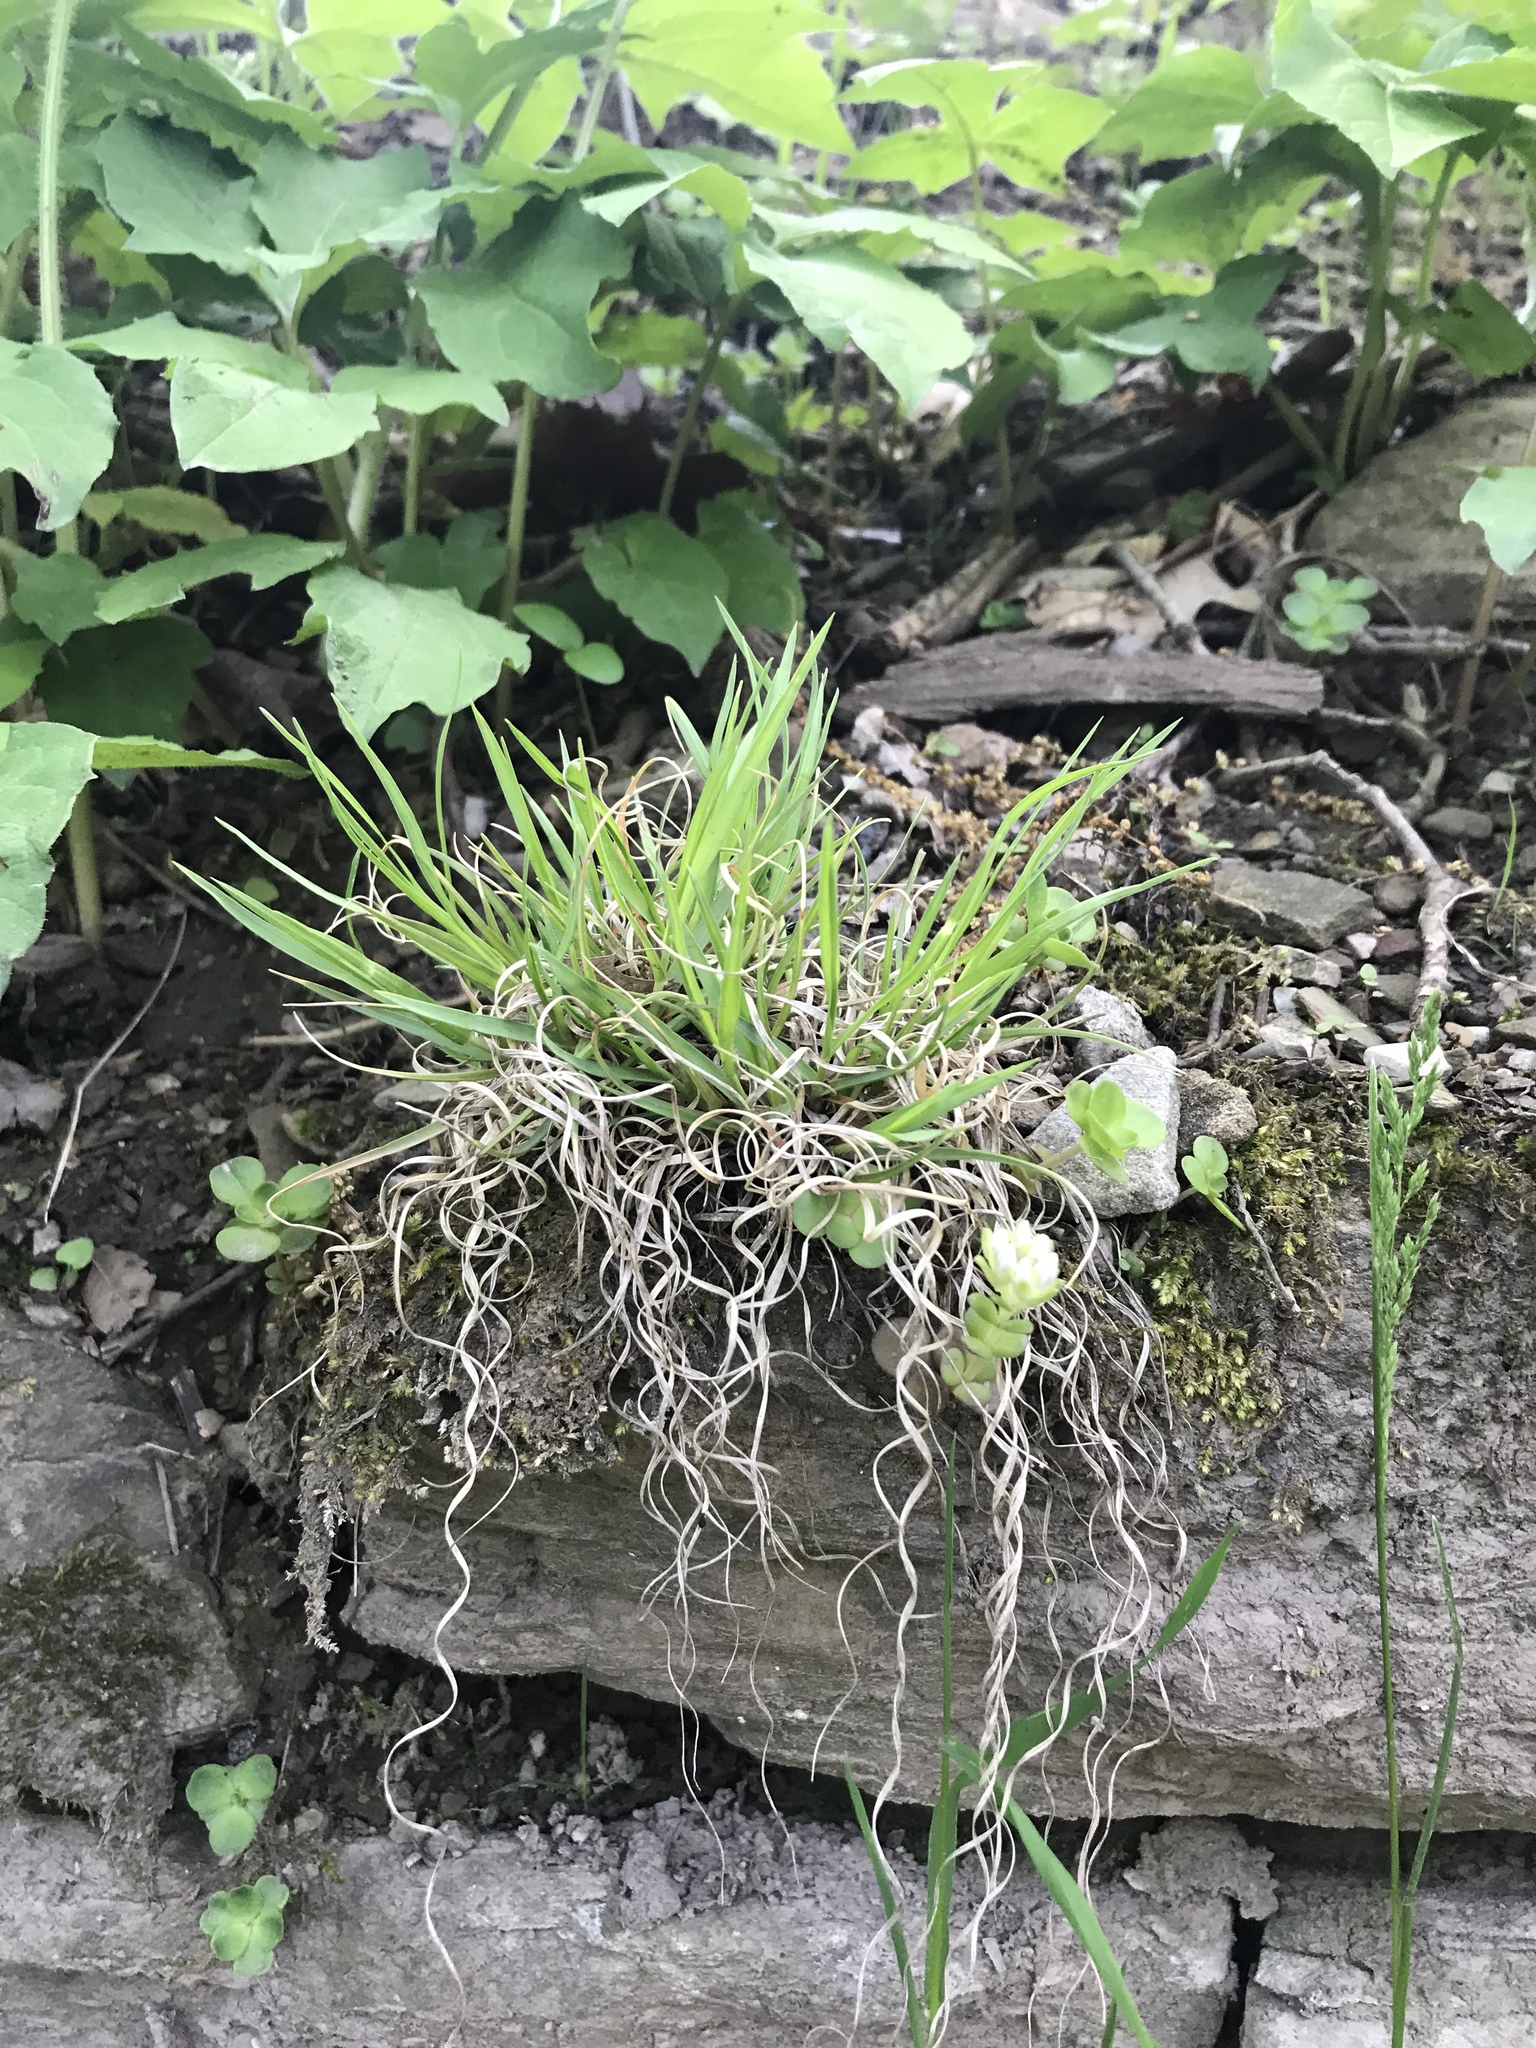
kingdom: Plantae
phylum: Tracheophyta
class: Liliopsida
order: Poales
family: Poaceae
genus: Danthonia
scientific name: Danthonia spicata
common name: Common wild oatgrass
